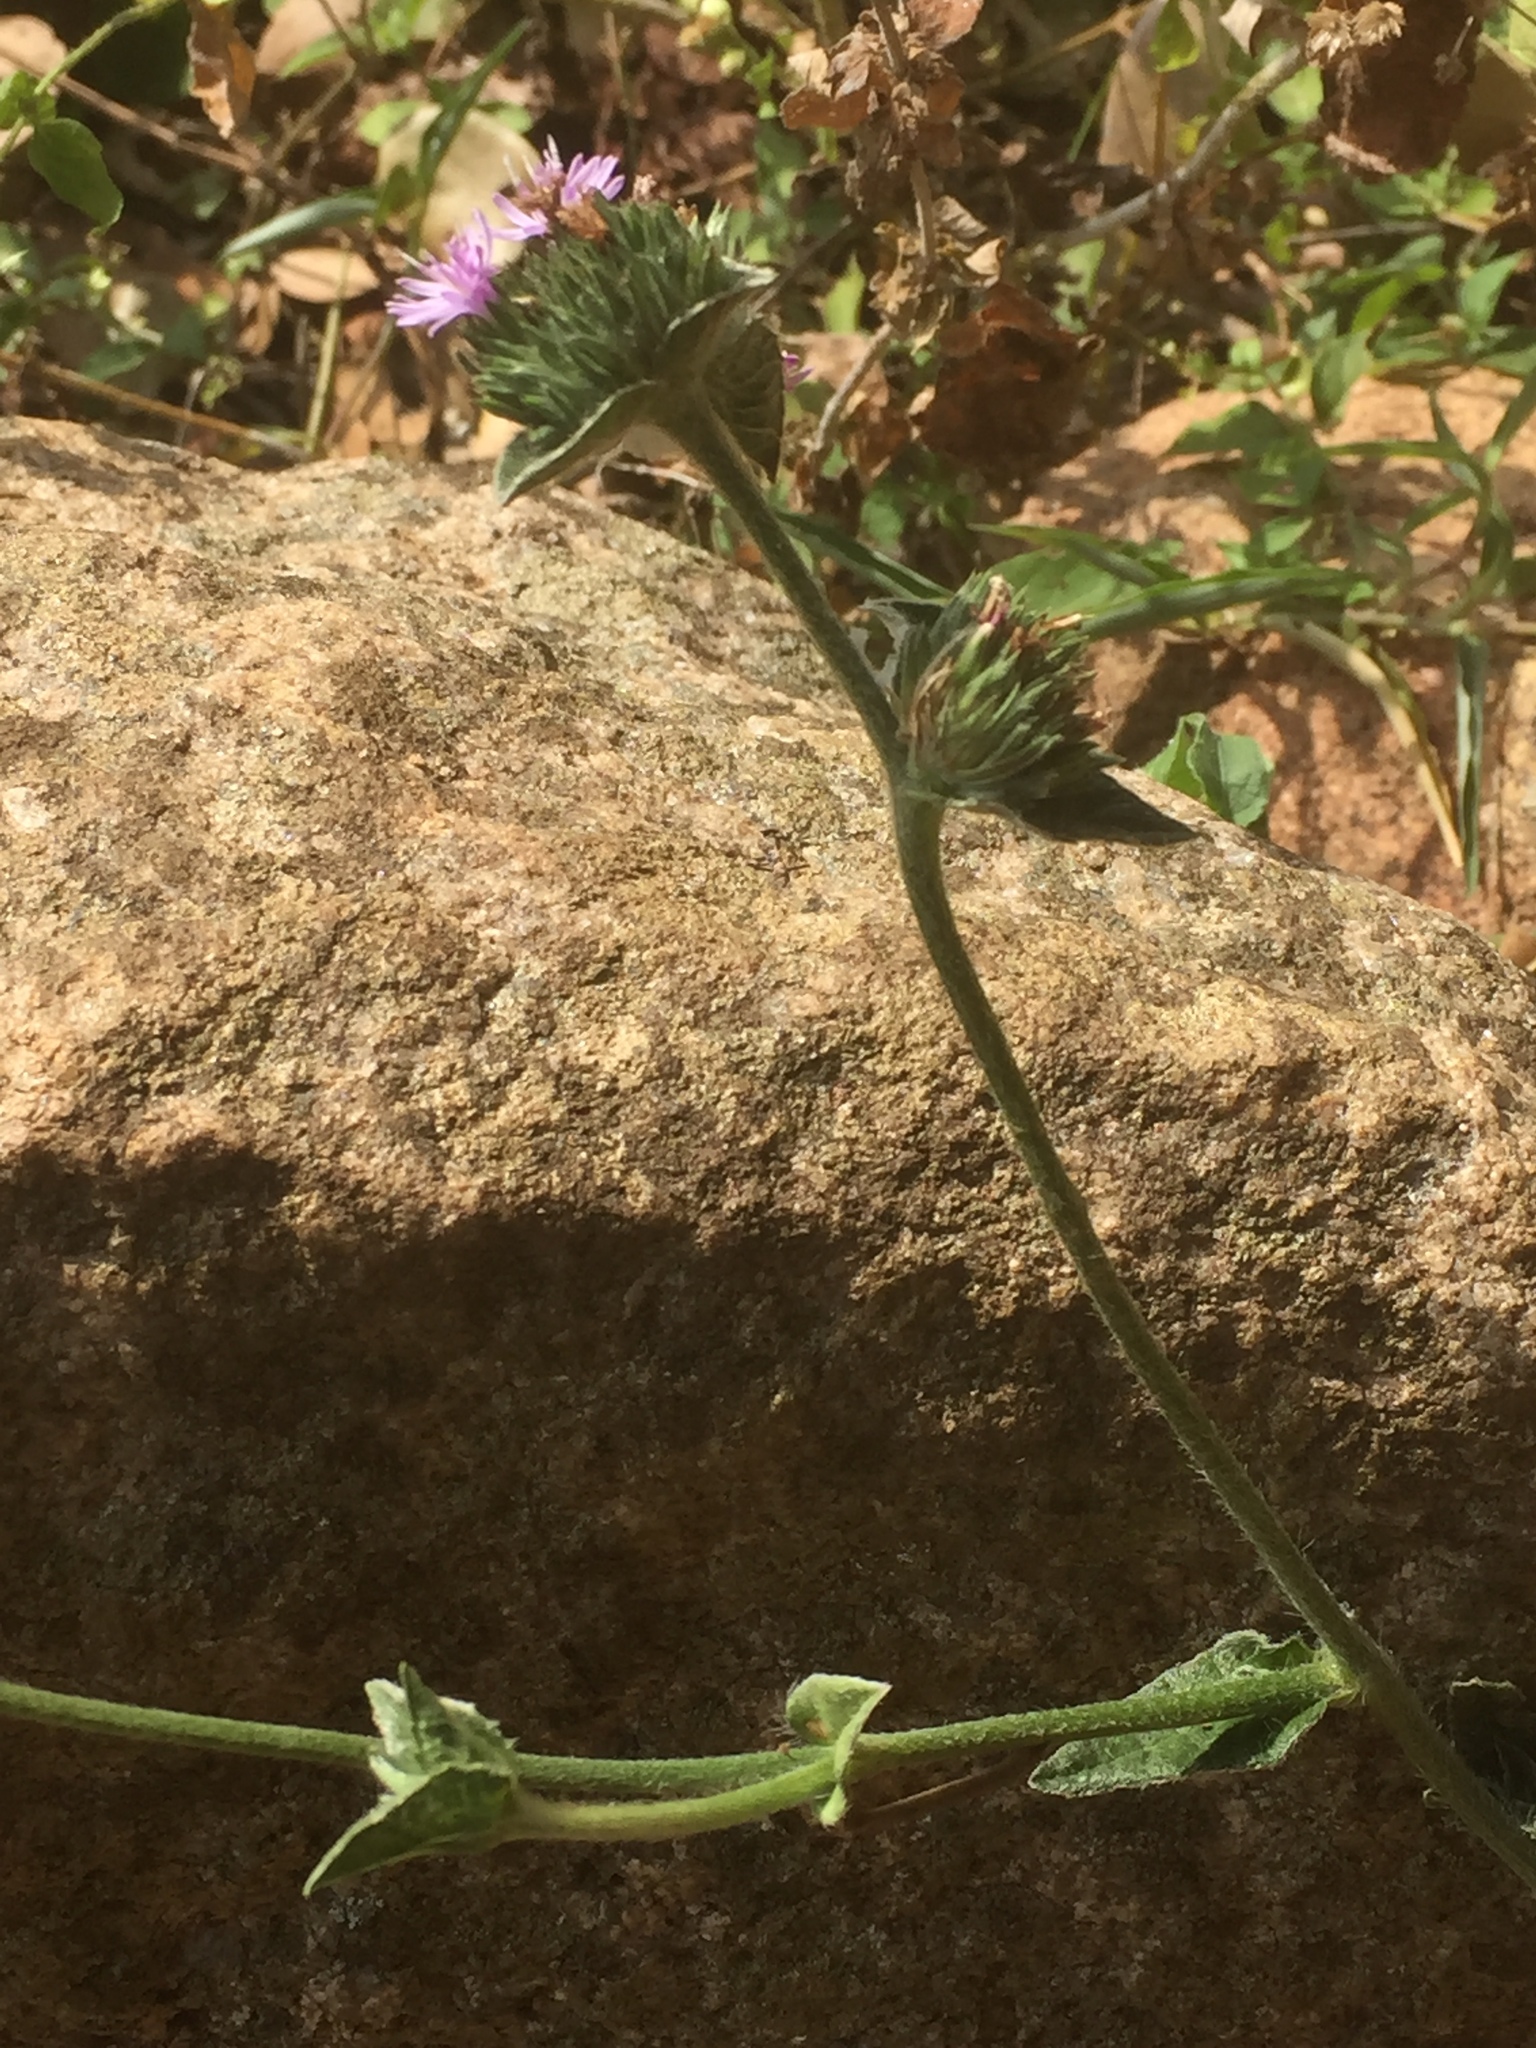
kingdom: Plantae
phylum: Tracheophyta
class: Magnoliopsida
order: Asterales
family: Asteraceae
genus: Elephantopus
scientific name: Elephantopus scaber
